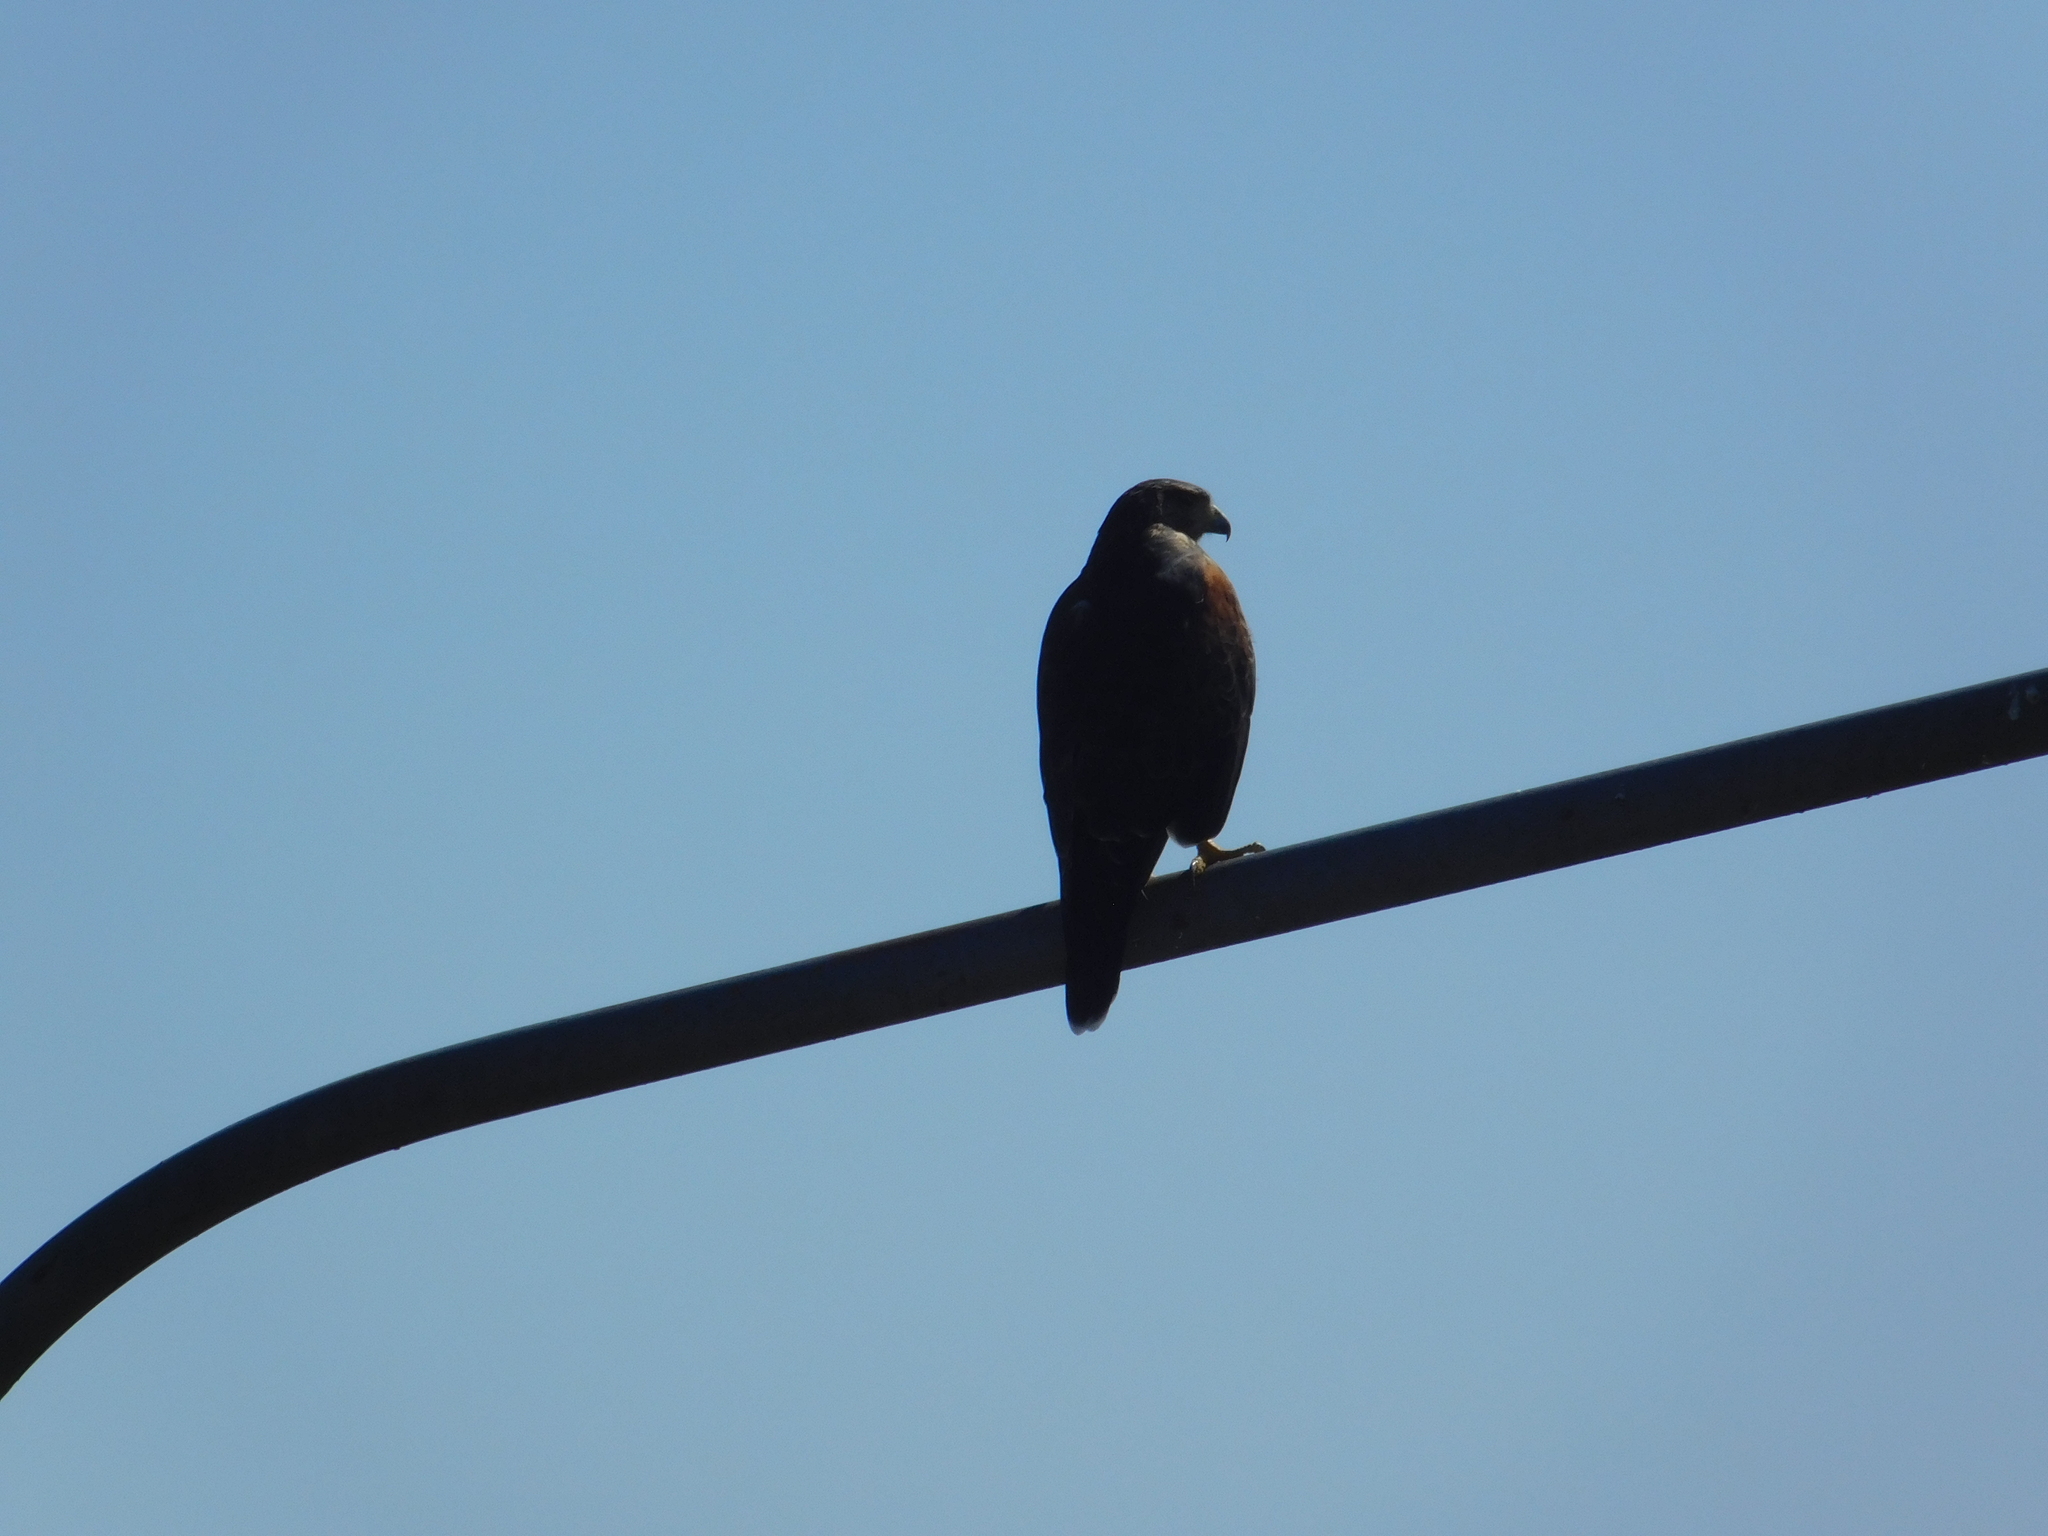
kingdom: Animalia
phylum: Chordata
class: Aves
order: Accipitriformes
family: Accipitridae
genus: Parabuteo
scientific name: Parabuteo unicinctus
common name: Harris's hawk
